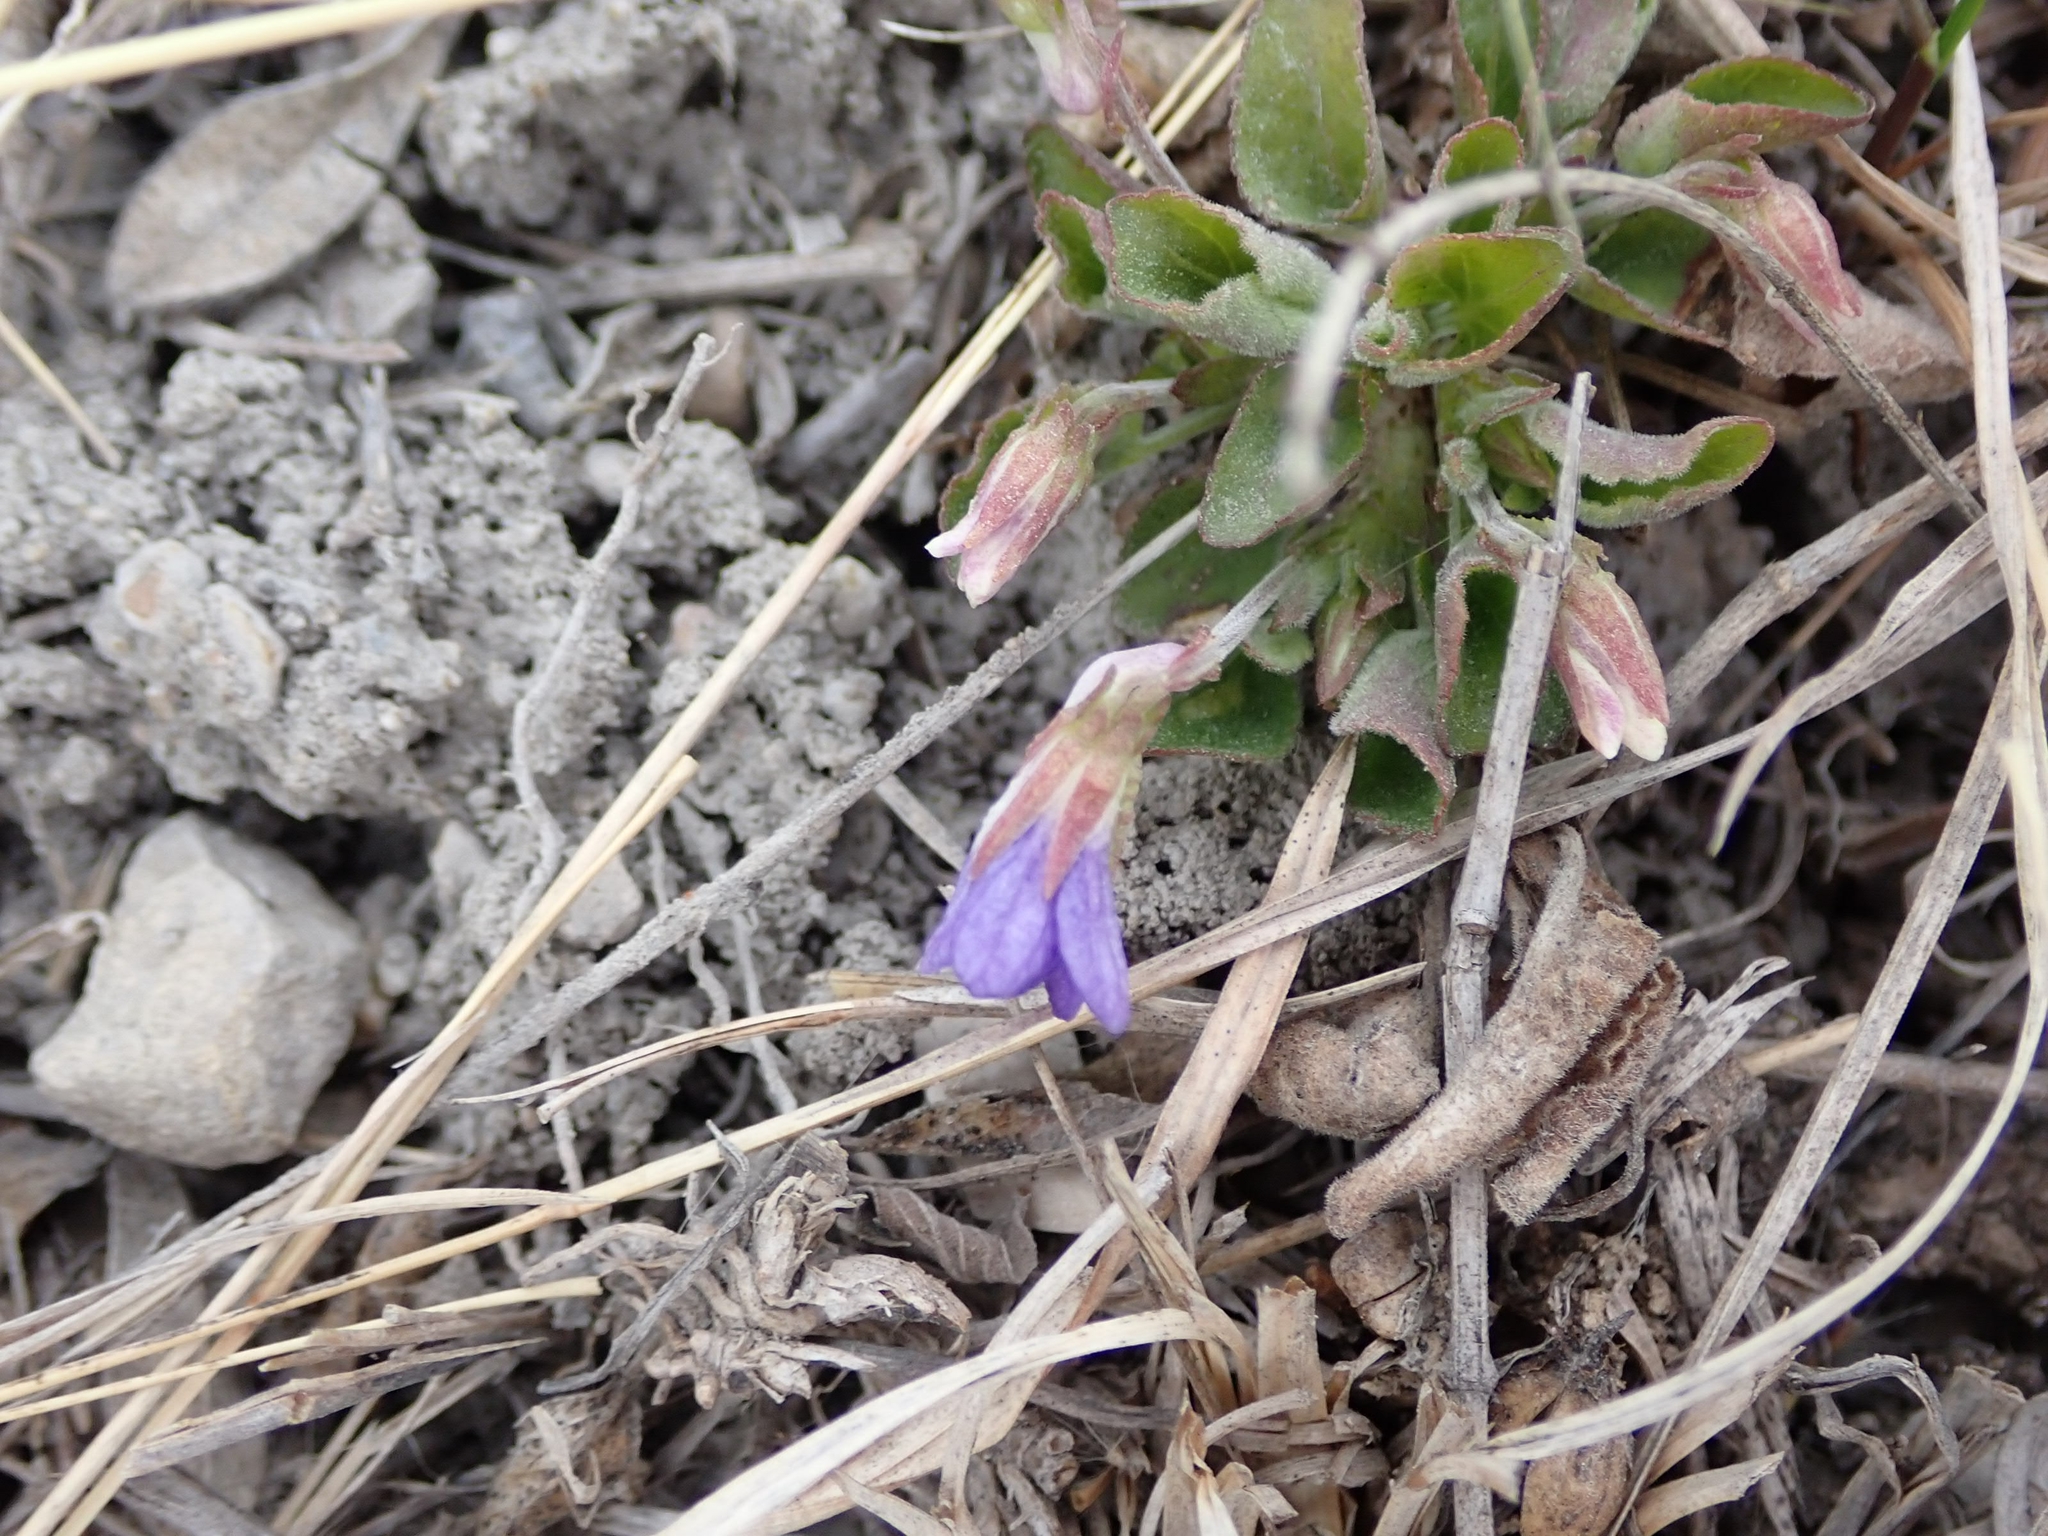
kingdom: Plantae
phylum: Tracheophyta
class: Magnoliopsida
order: Malpighiales
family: Violaceae
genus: Viola
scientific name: Viola adunca
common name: Sand violet
